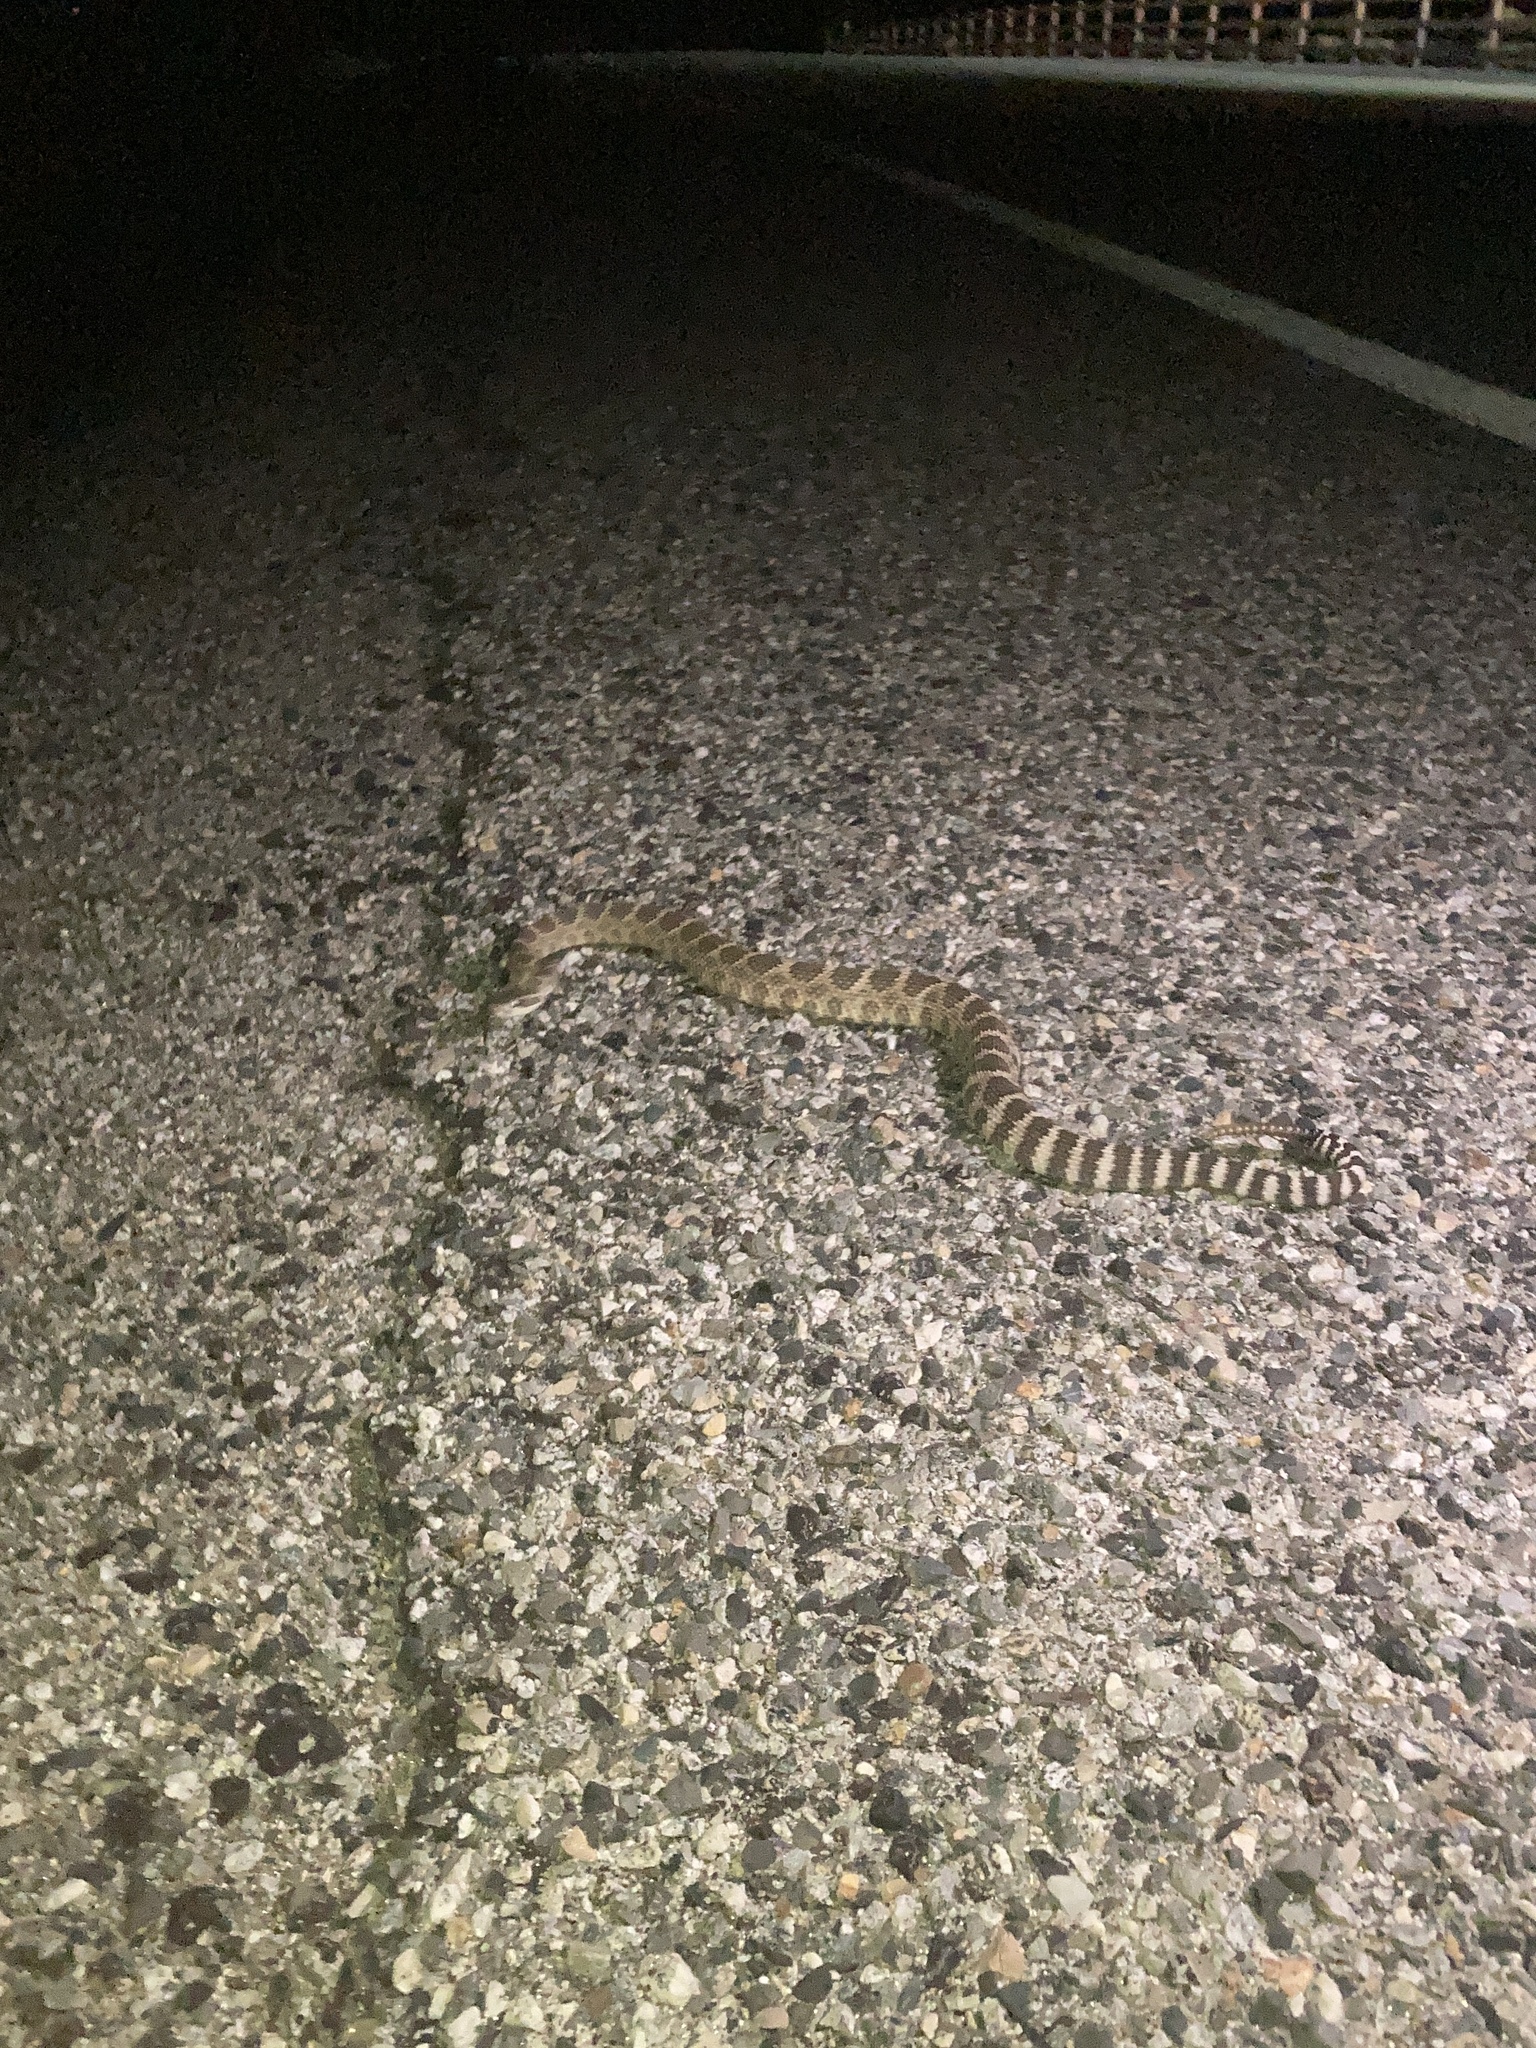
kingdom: Animalia
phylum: Chordata
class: Squamata
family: Viperidae
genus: Crotalus
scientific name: Crotalus oreganus
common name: Abyssus
